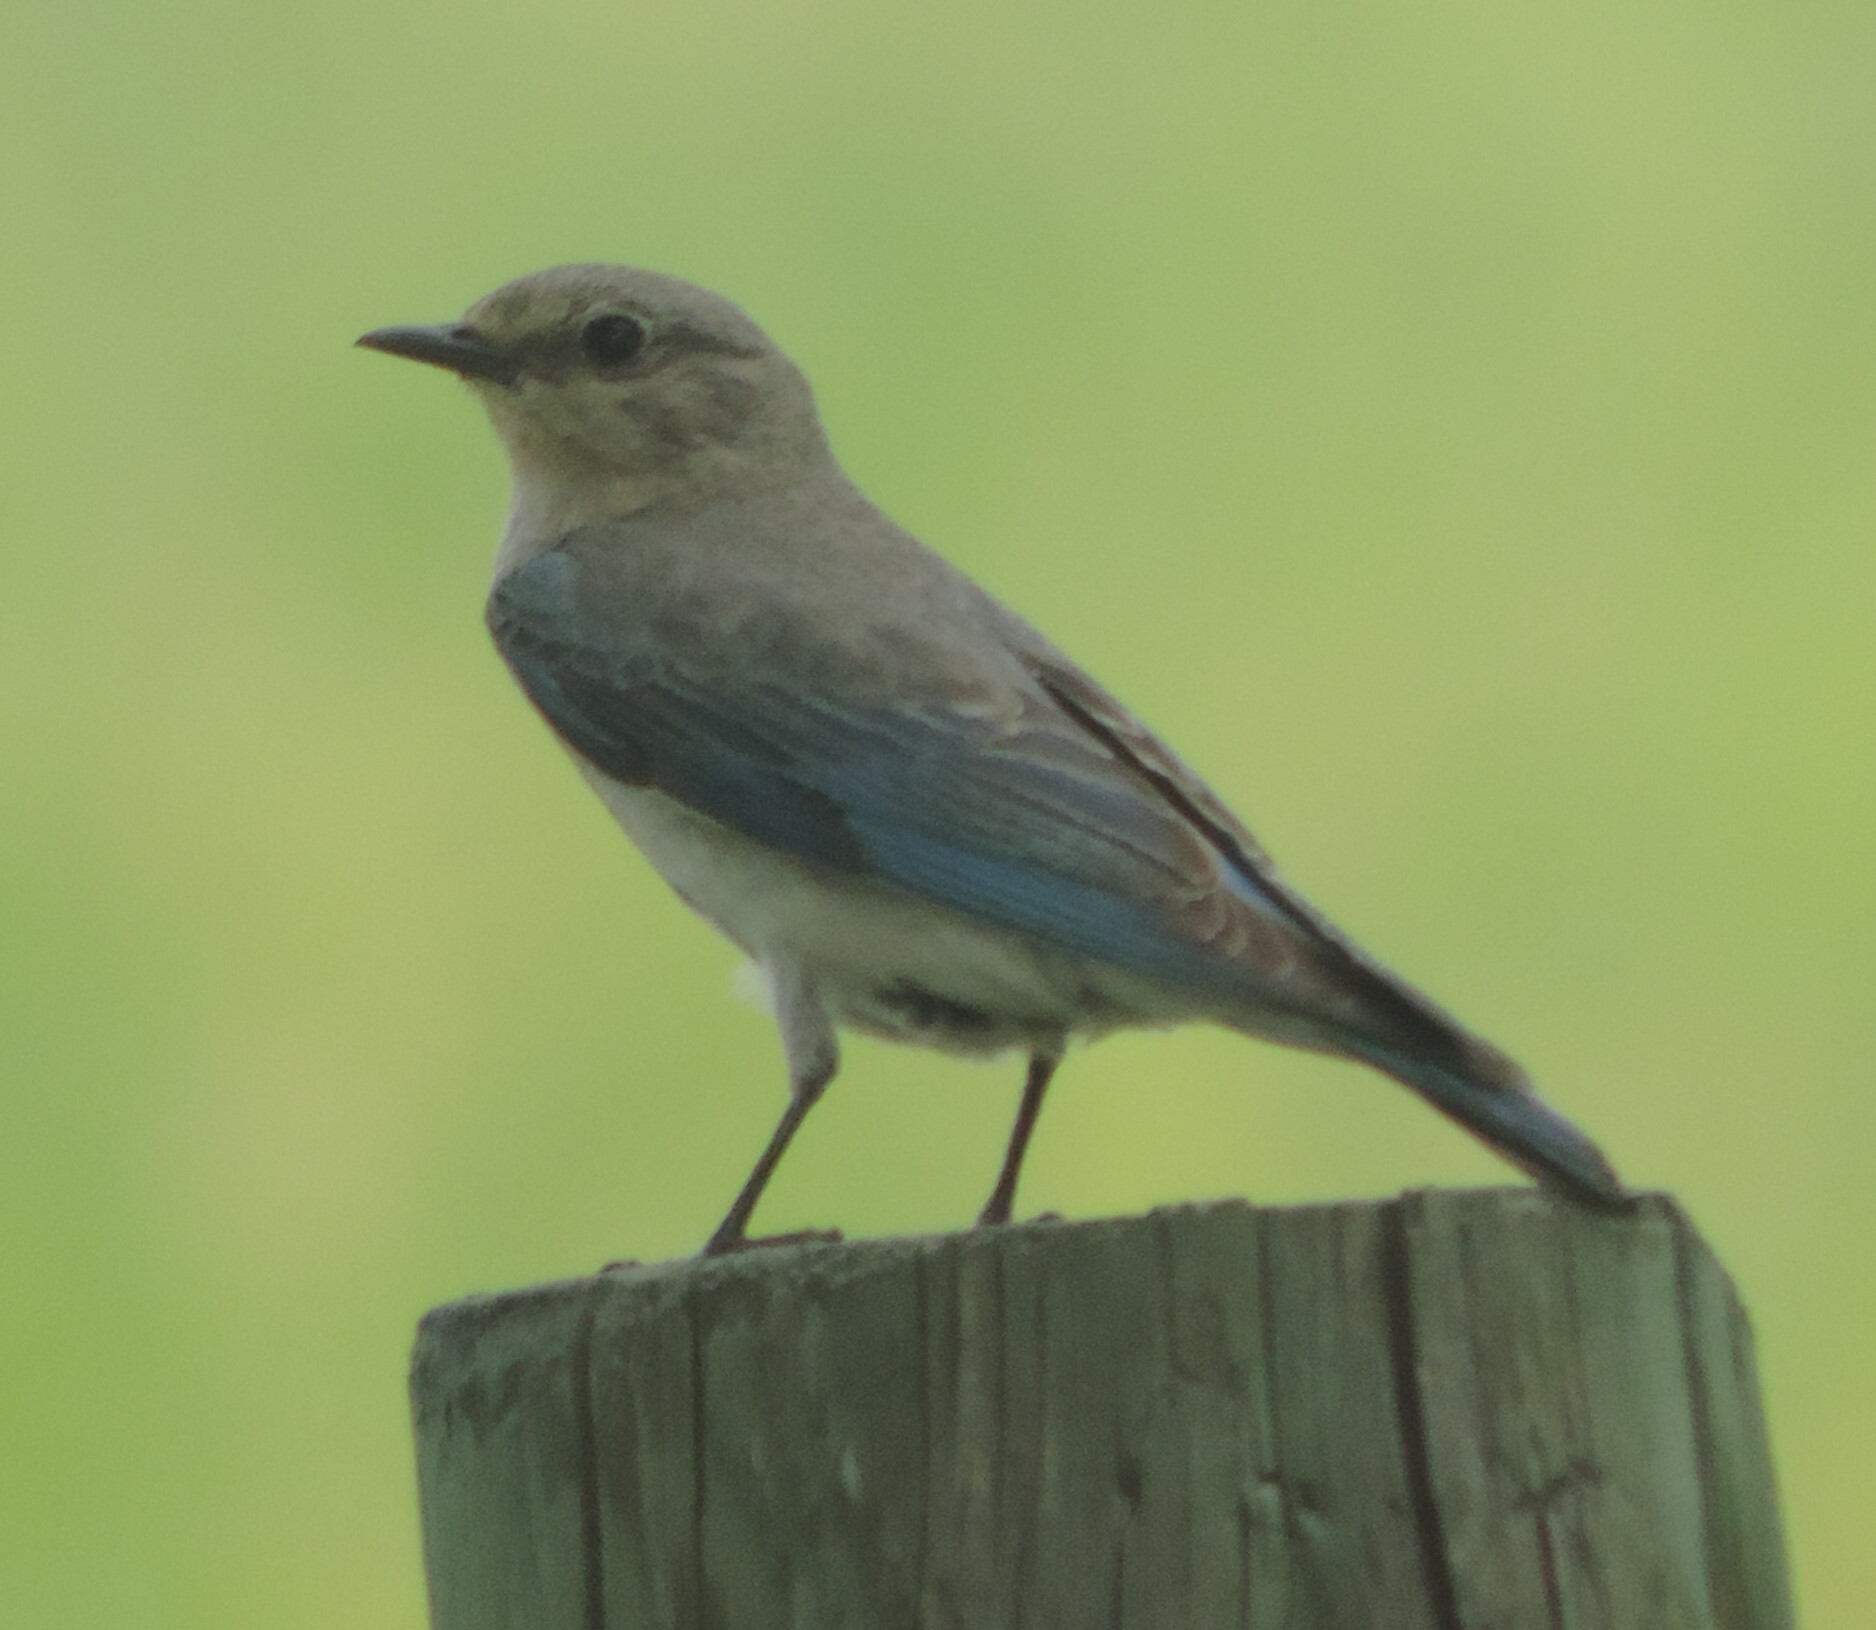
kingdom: Animalia
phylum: Chordata
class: Aves
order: Passeriformes
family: Turdidae
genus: Sialia
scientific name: Sialia currucoides
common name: Mountain bluebird
